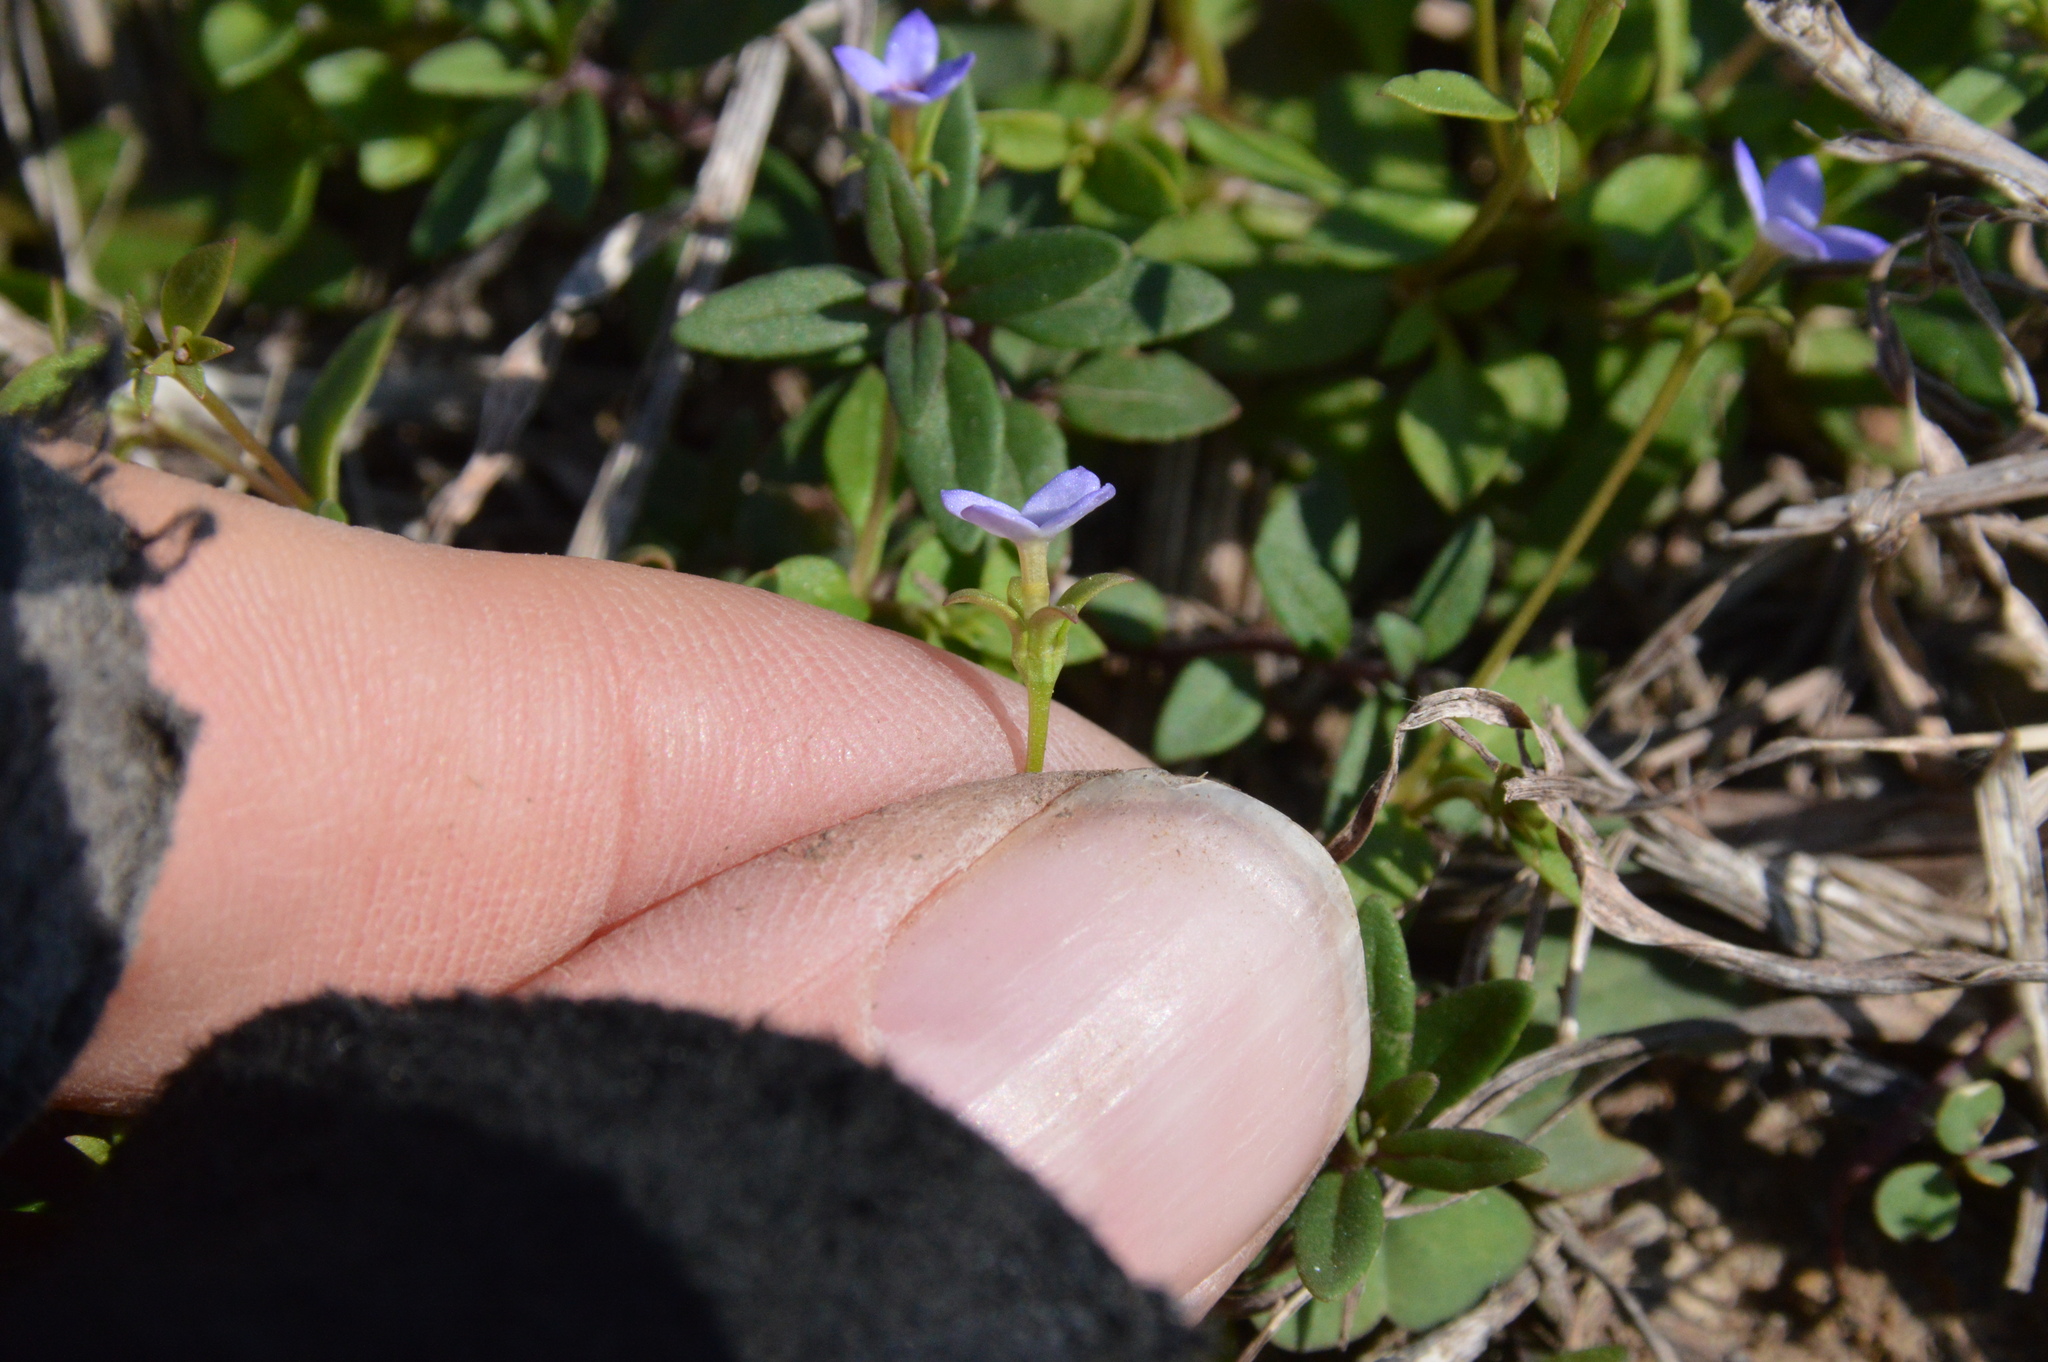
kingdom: Plantae
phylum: Tracheophyta
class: Magnoliopsida
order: Gentianales
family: Rubiaceae
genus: Houstonia
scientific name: Houstonia pusilla
